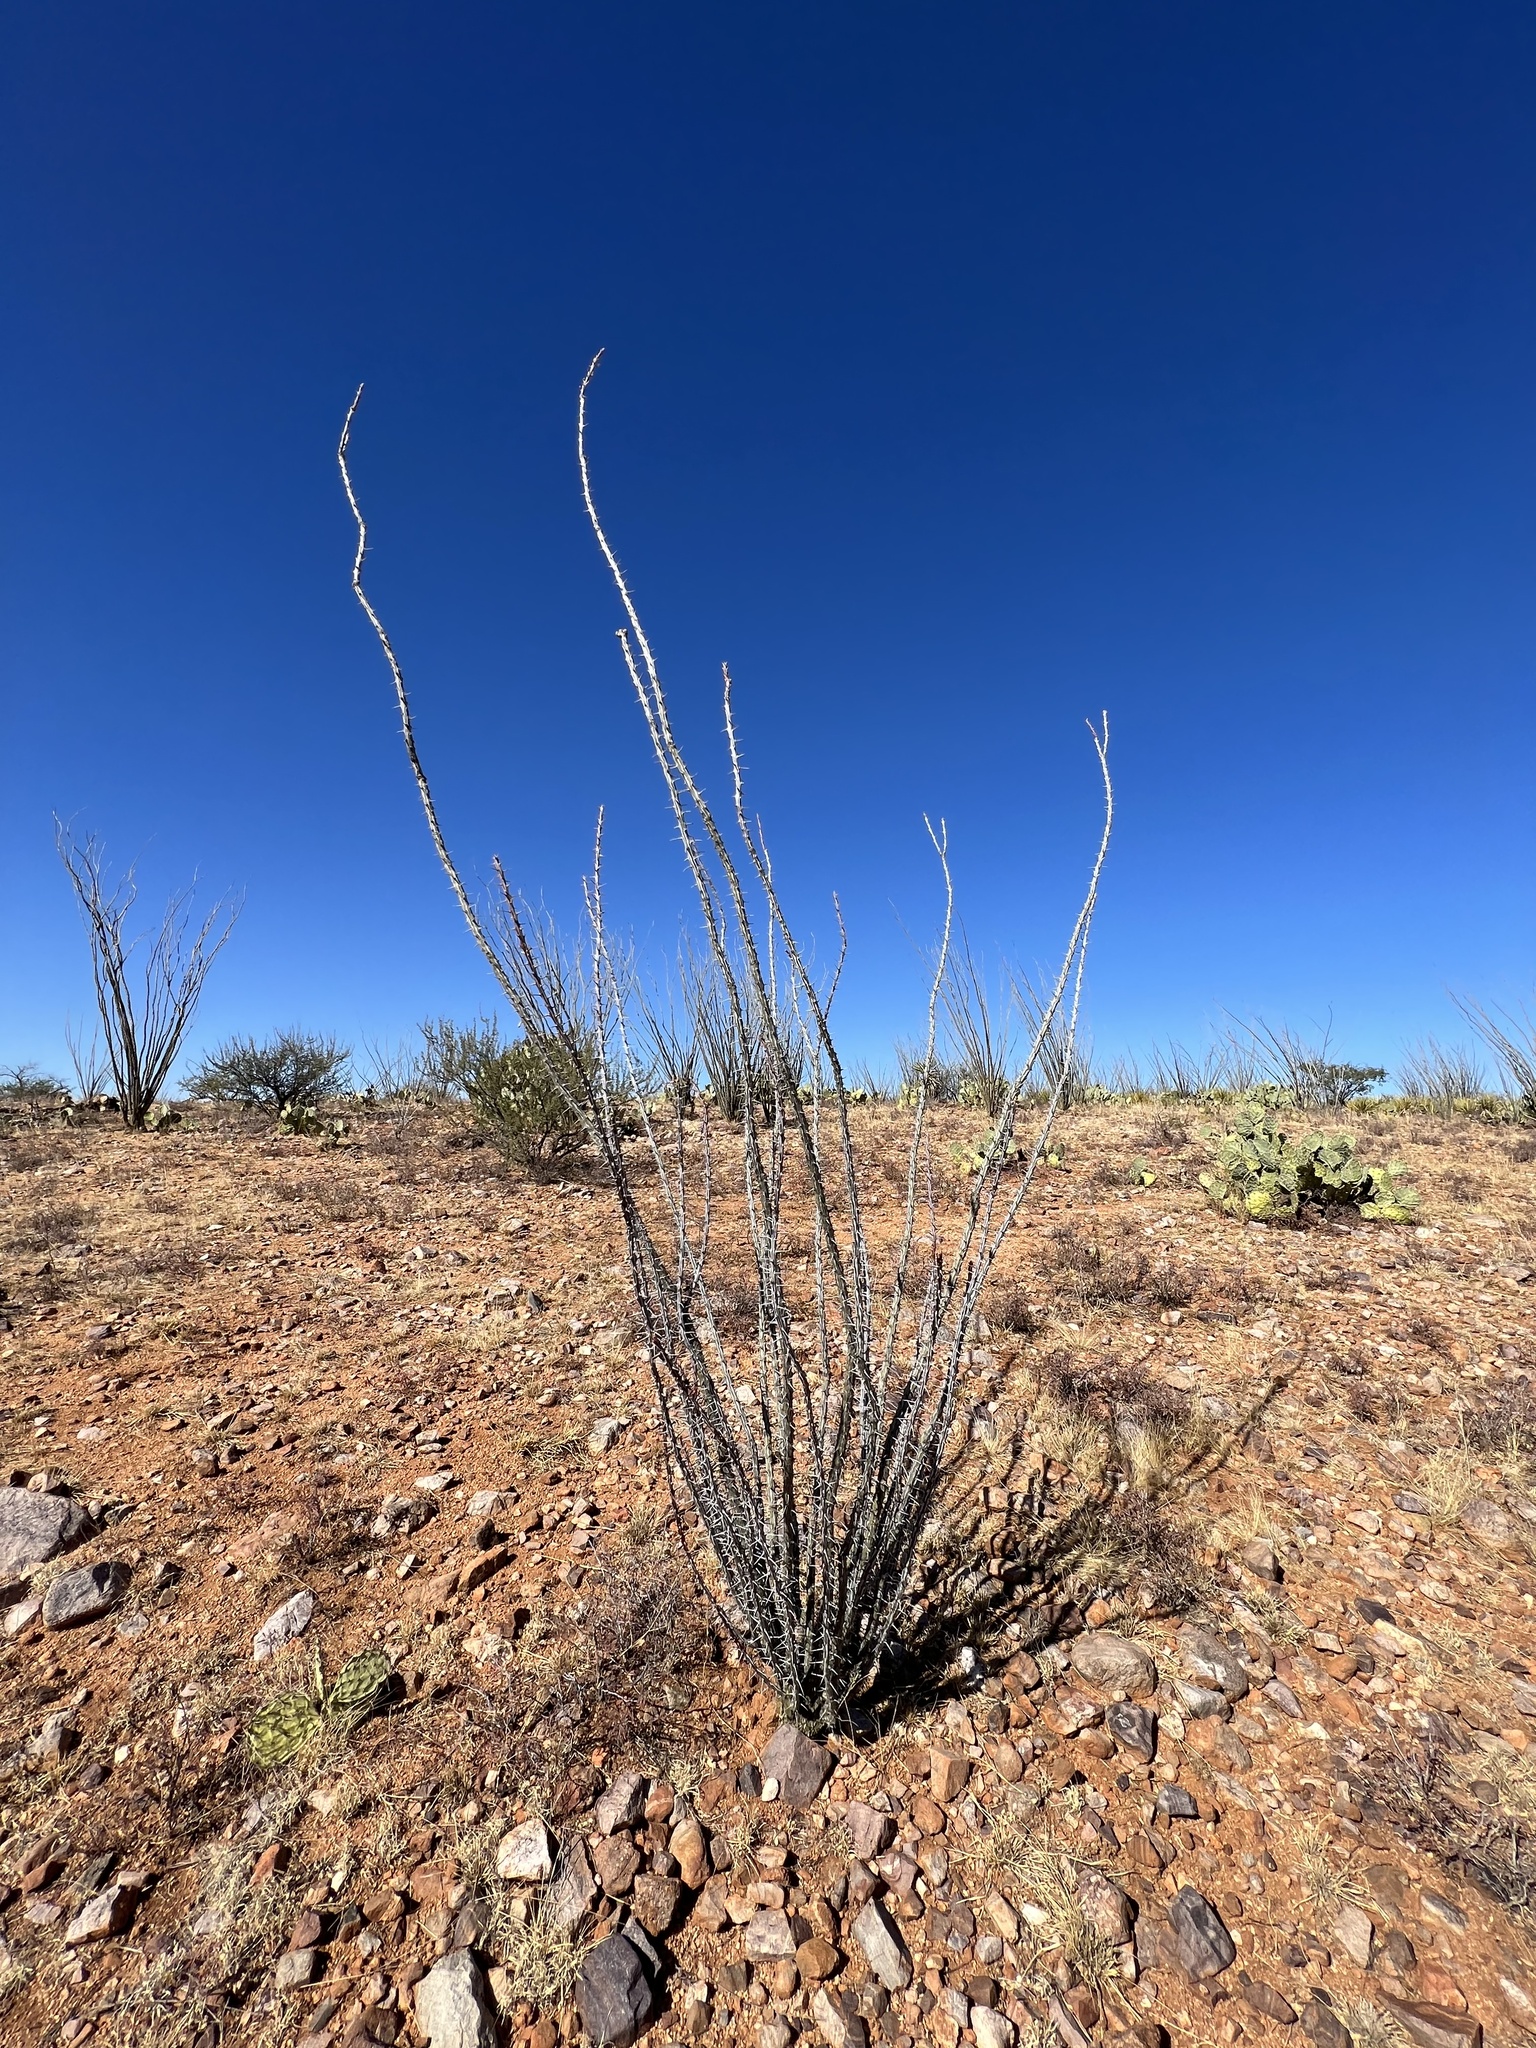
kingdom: Plantae
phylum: Tracheophyta
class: Magnoliopsida
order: Ericales
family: Fouquieriaceae
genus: Fouquieria
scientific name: Fouquieria splendens
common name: Vine-cactus
